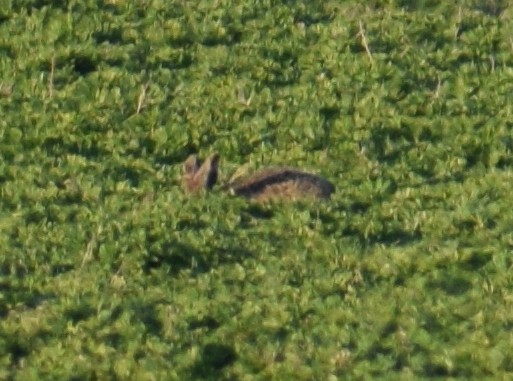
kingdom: Animalia
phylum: Chordata
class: Mammalia
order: Lagomorpha
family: Leporidae
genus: Lepus
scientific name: Lepus europaeus
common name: European hare
